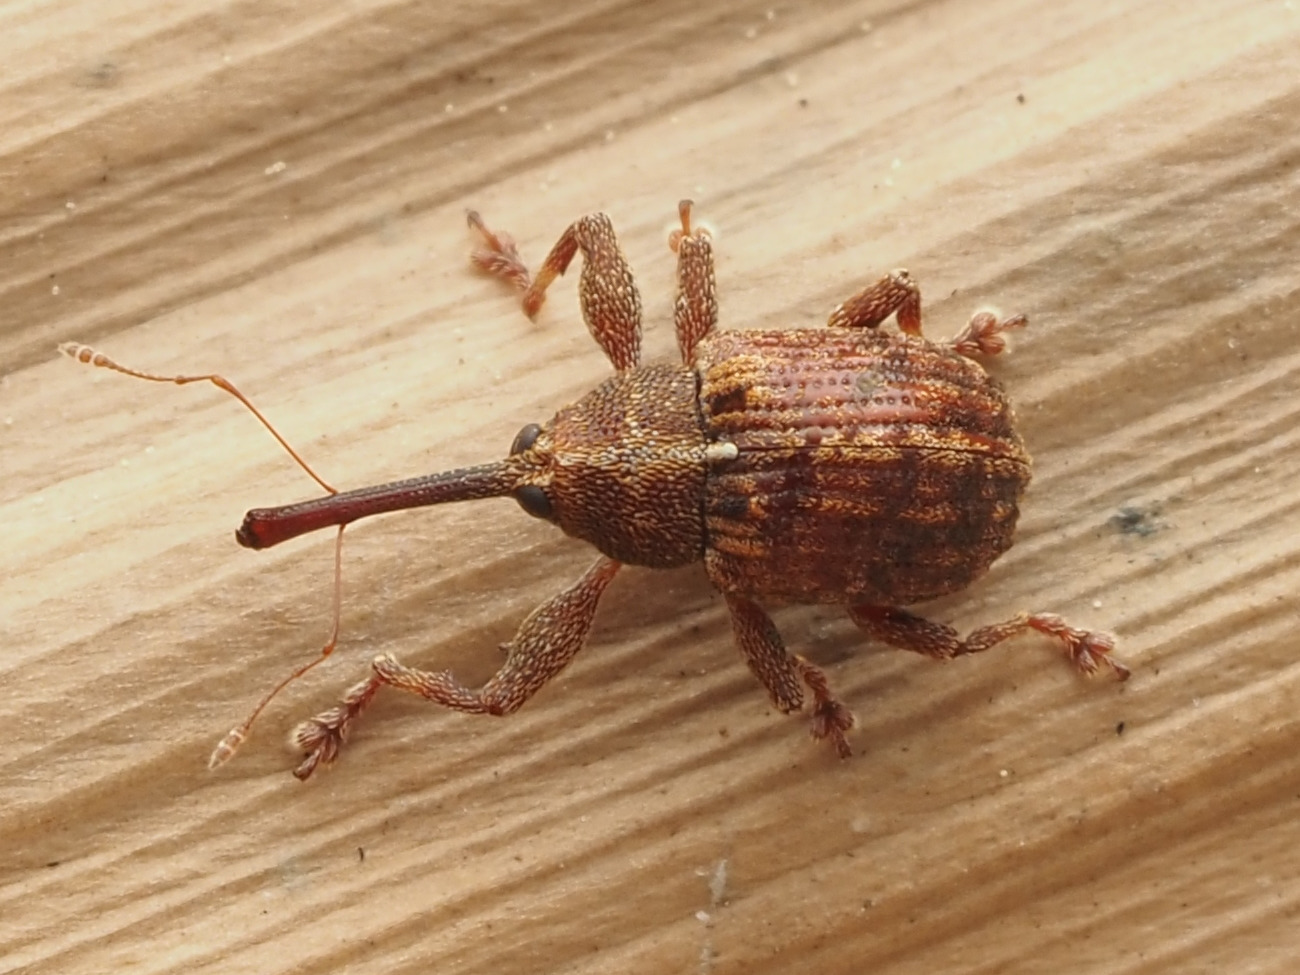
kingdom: Animalia
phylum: Arthropoda
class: Insecta
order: Coleoptera
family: Curculionidae
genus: Anthonomus
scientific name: Anthonomus alboannulatus
